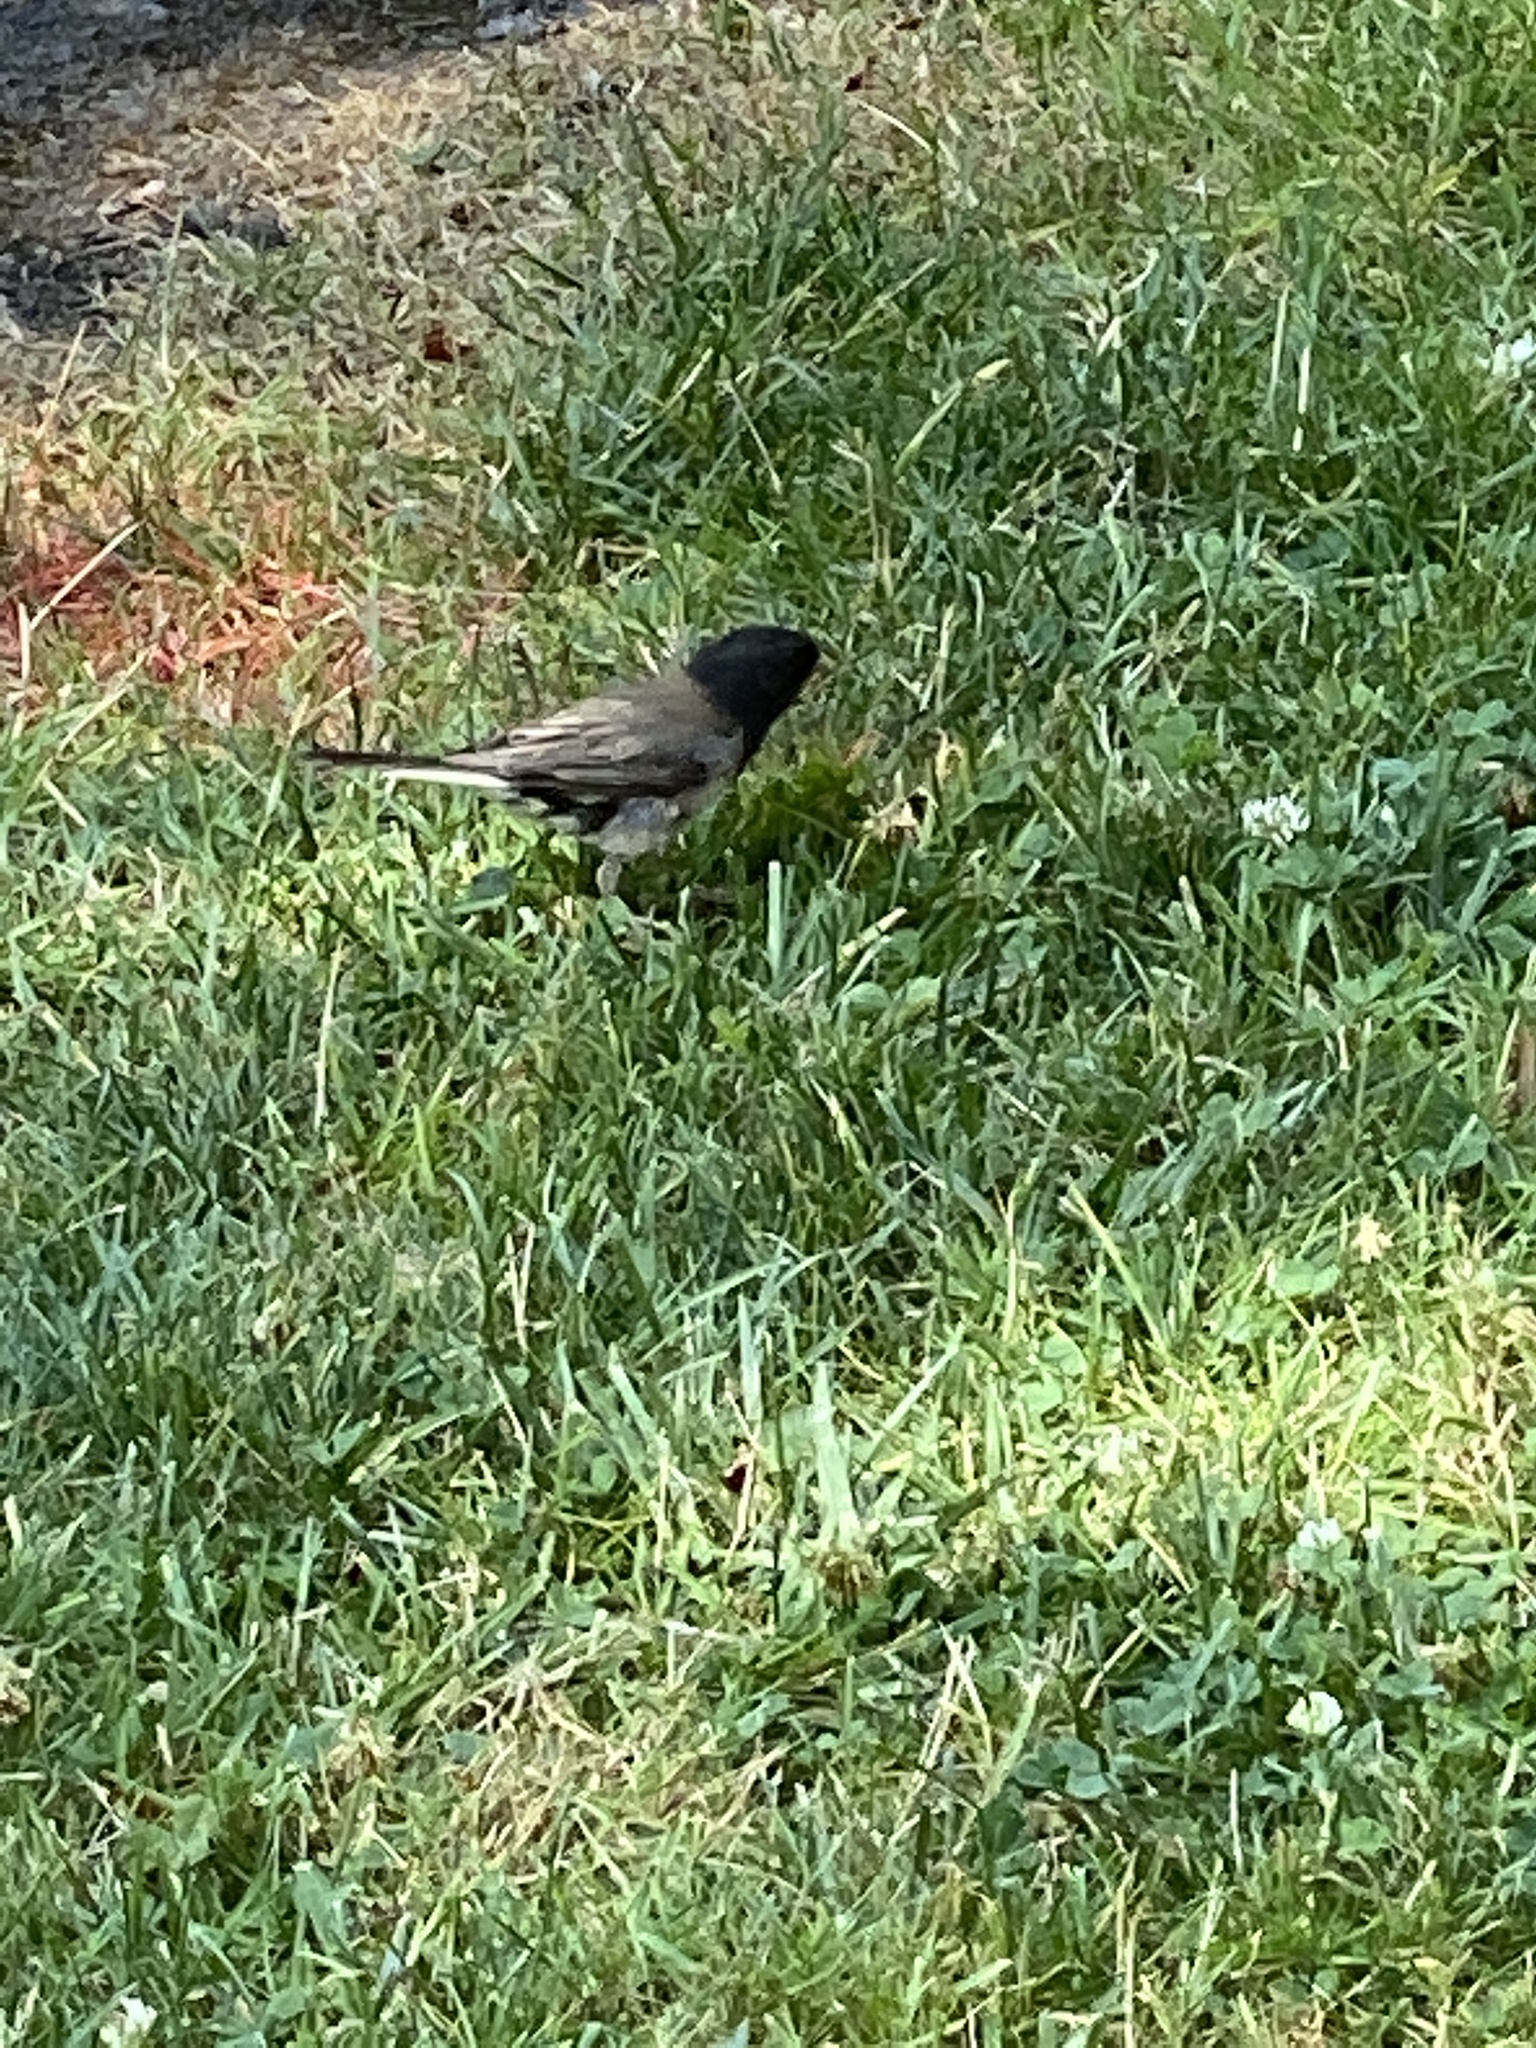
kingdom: Animalia
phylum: Chordata
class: Aves
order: Passeriformes
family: Passerellidae
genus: Junco
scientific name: Junco hyemalis
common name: Dark-eyed junco
